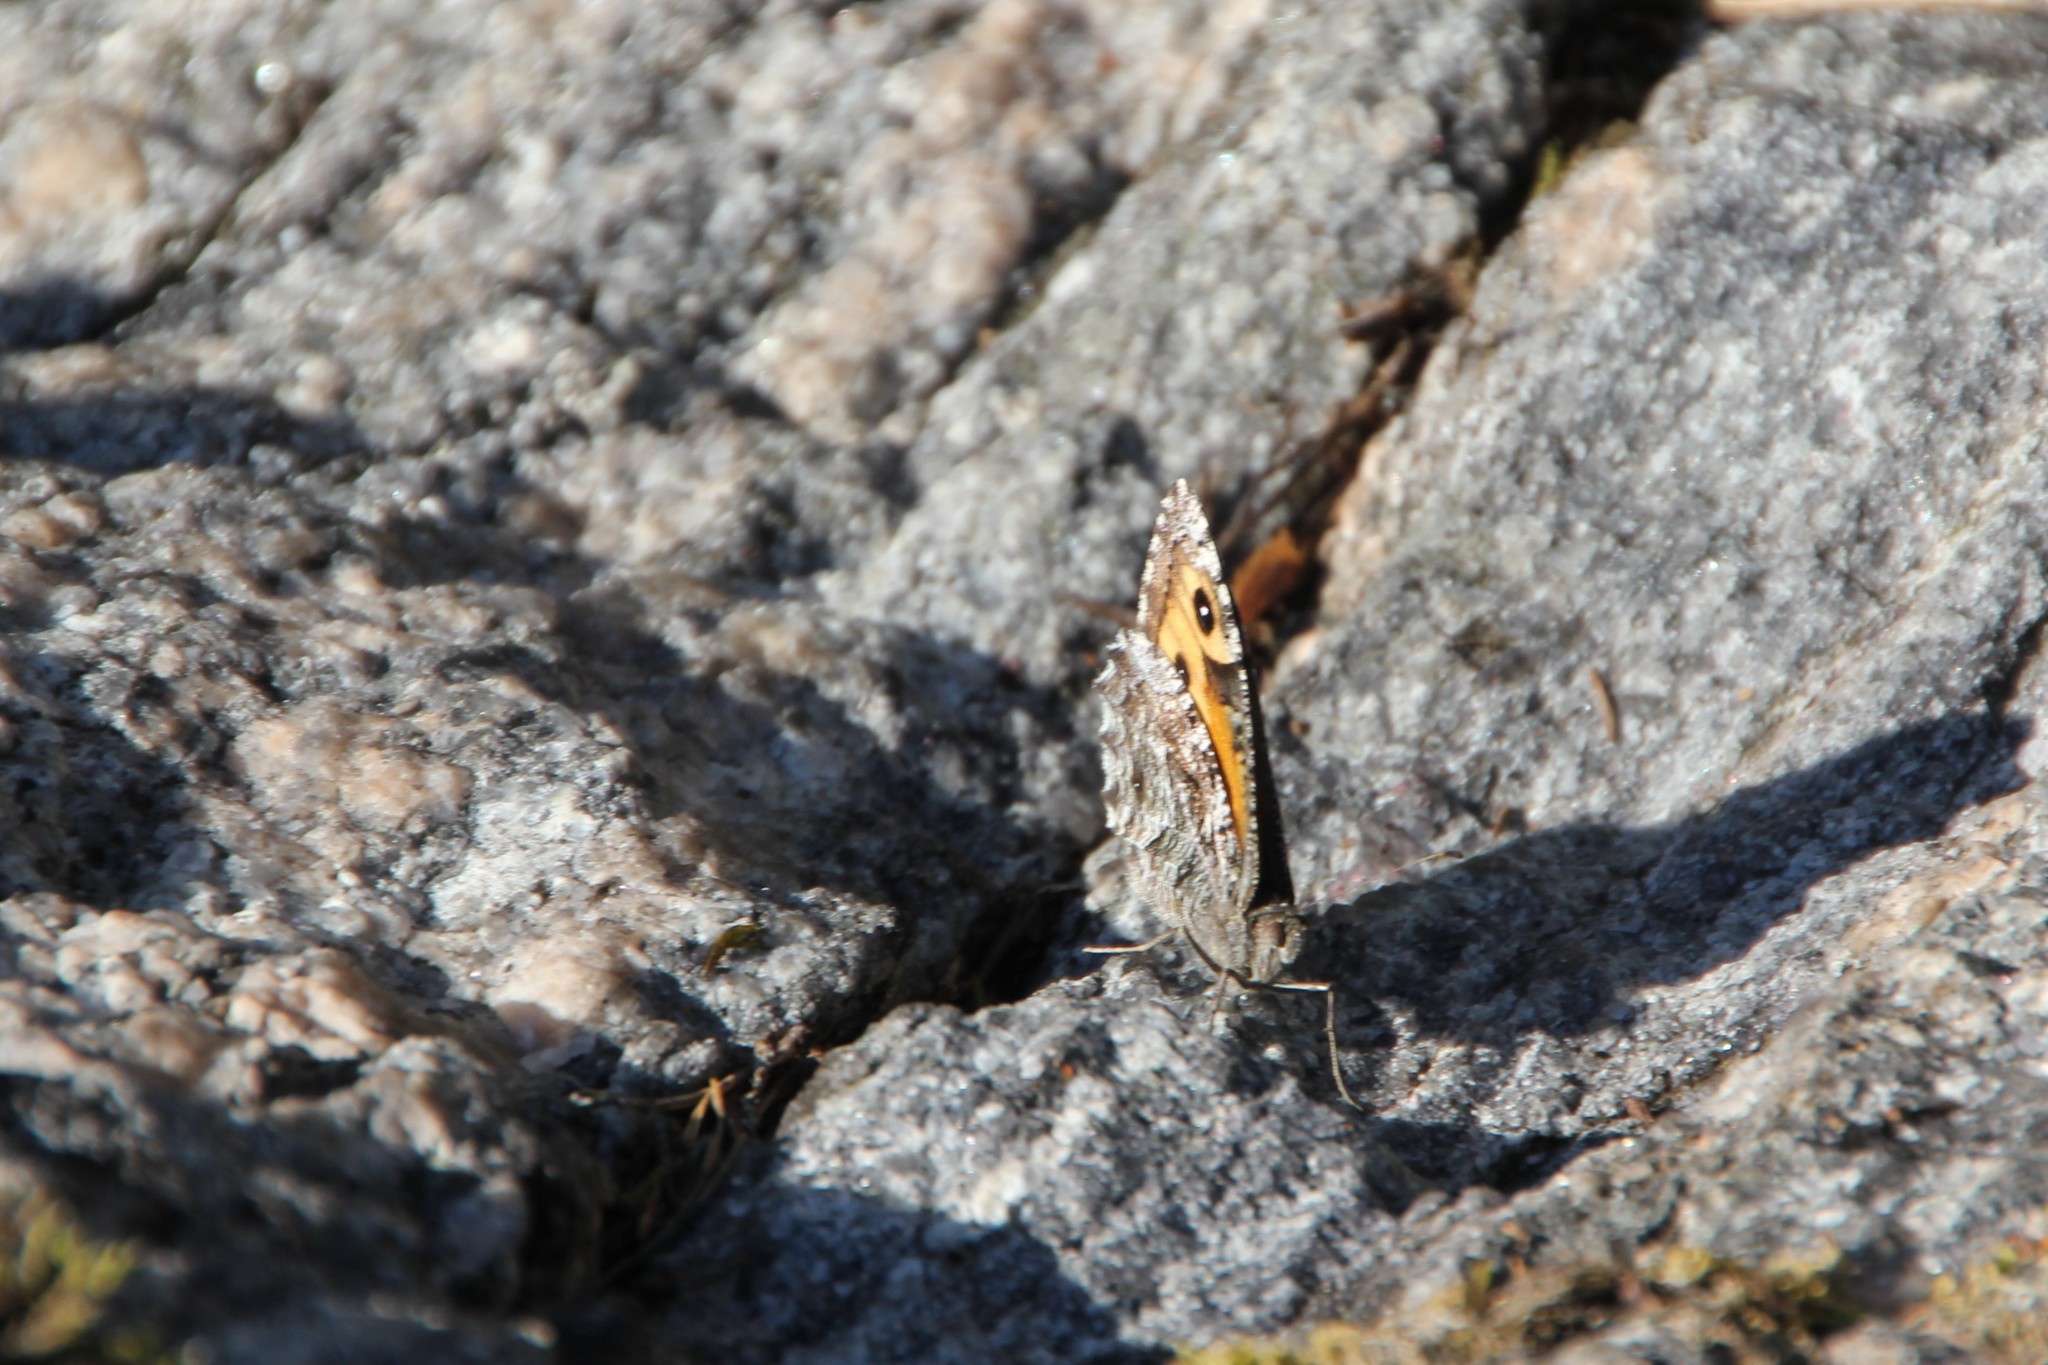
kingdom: Animalia
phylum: Arthropoda
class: Insecta
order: Lepidoptera
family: Nymphalidae
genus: Hipparchia
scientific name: Hipparchia semele
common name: Grayling
